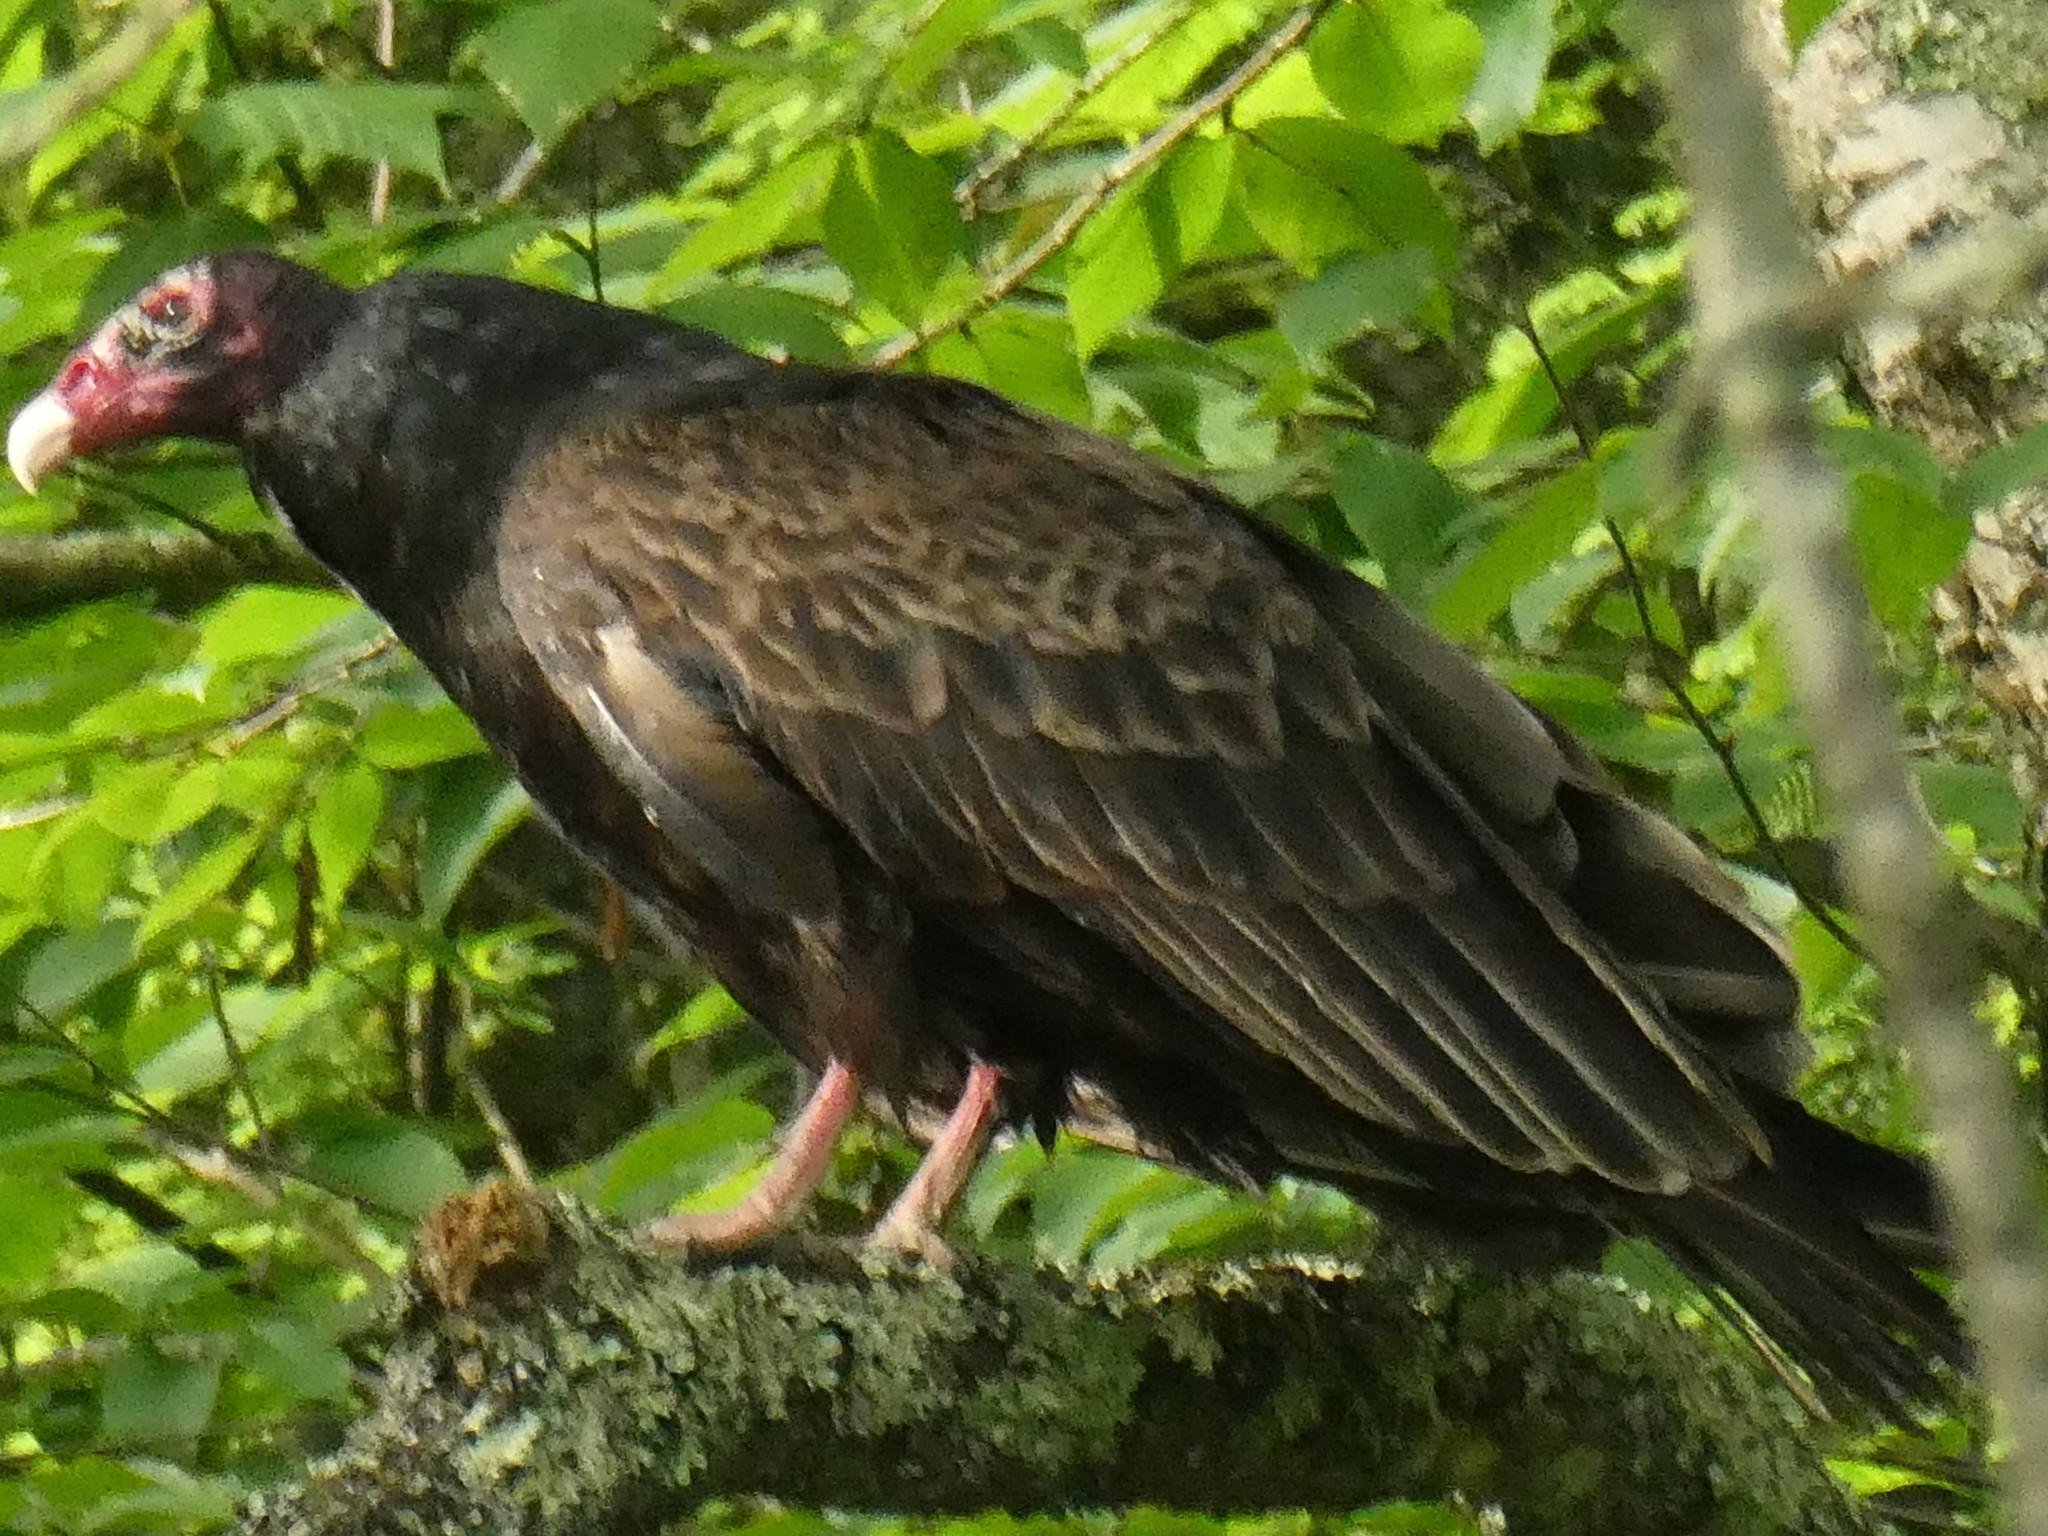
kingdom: Animalia
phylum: Chordata
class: Aves
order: Accipitriformes
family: Cathartidae
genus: Cathartes
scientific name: Cathartes aura
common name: Turkey vulture
